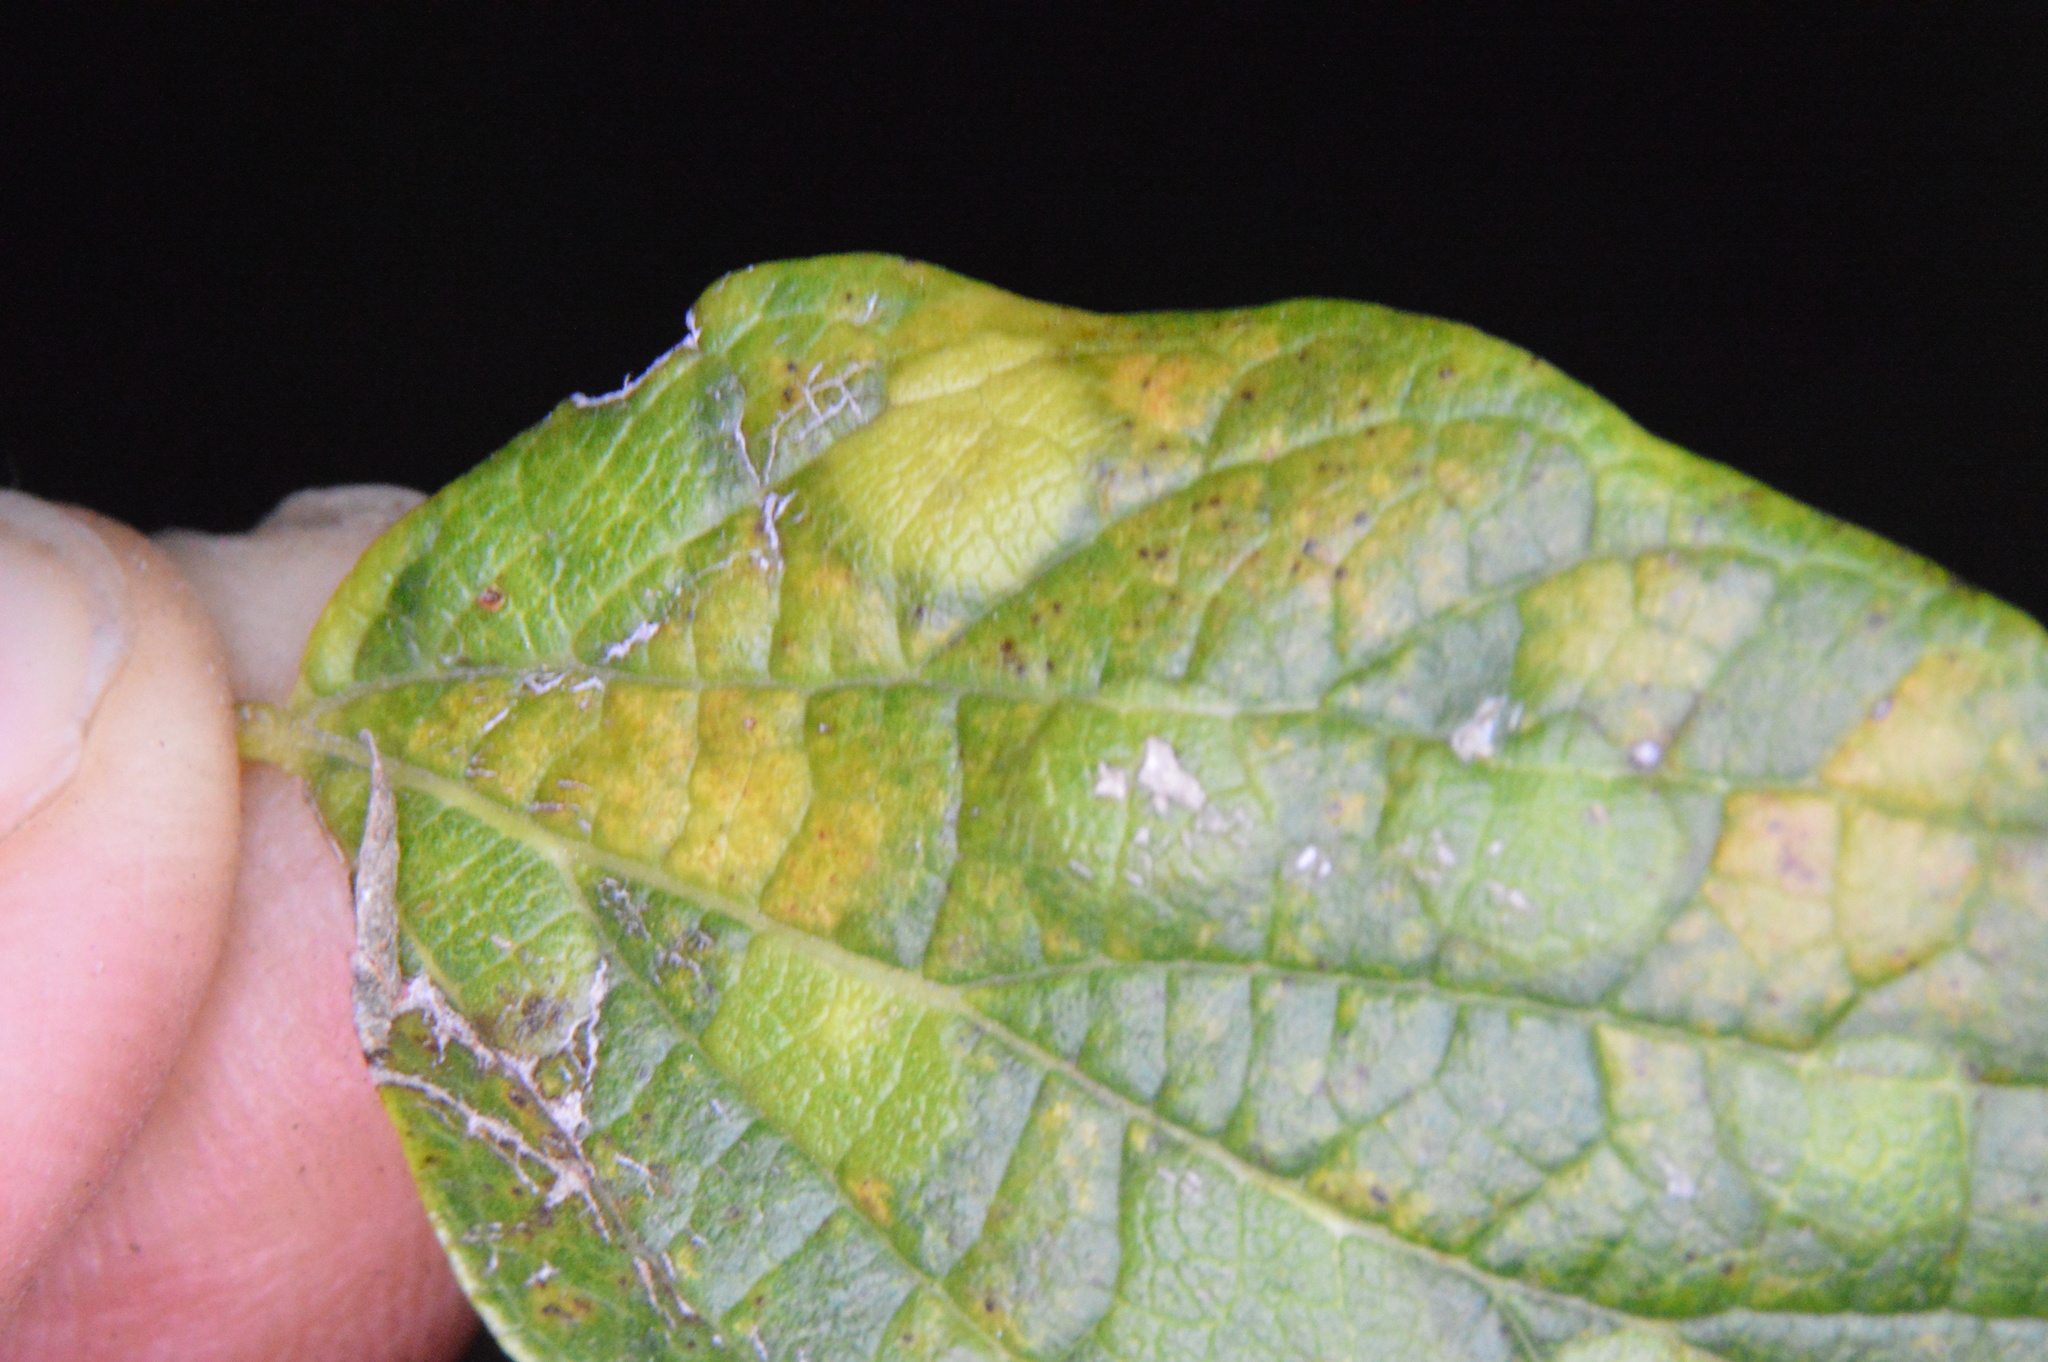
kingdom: Animalia
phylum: Arthropoda
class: Insecta
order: Hemiptera
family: Aphalaridae
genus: Pachypsylla
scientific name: Pachypsylla celtidisvesicula
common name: Hackberry blister gall psyllid
